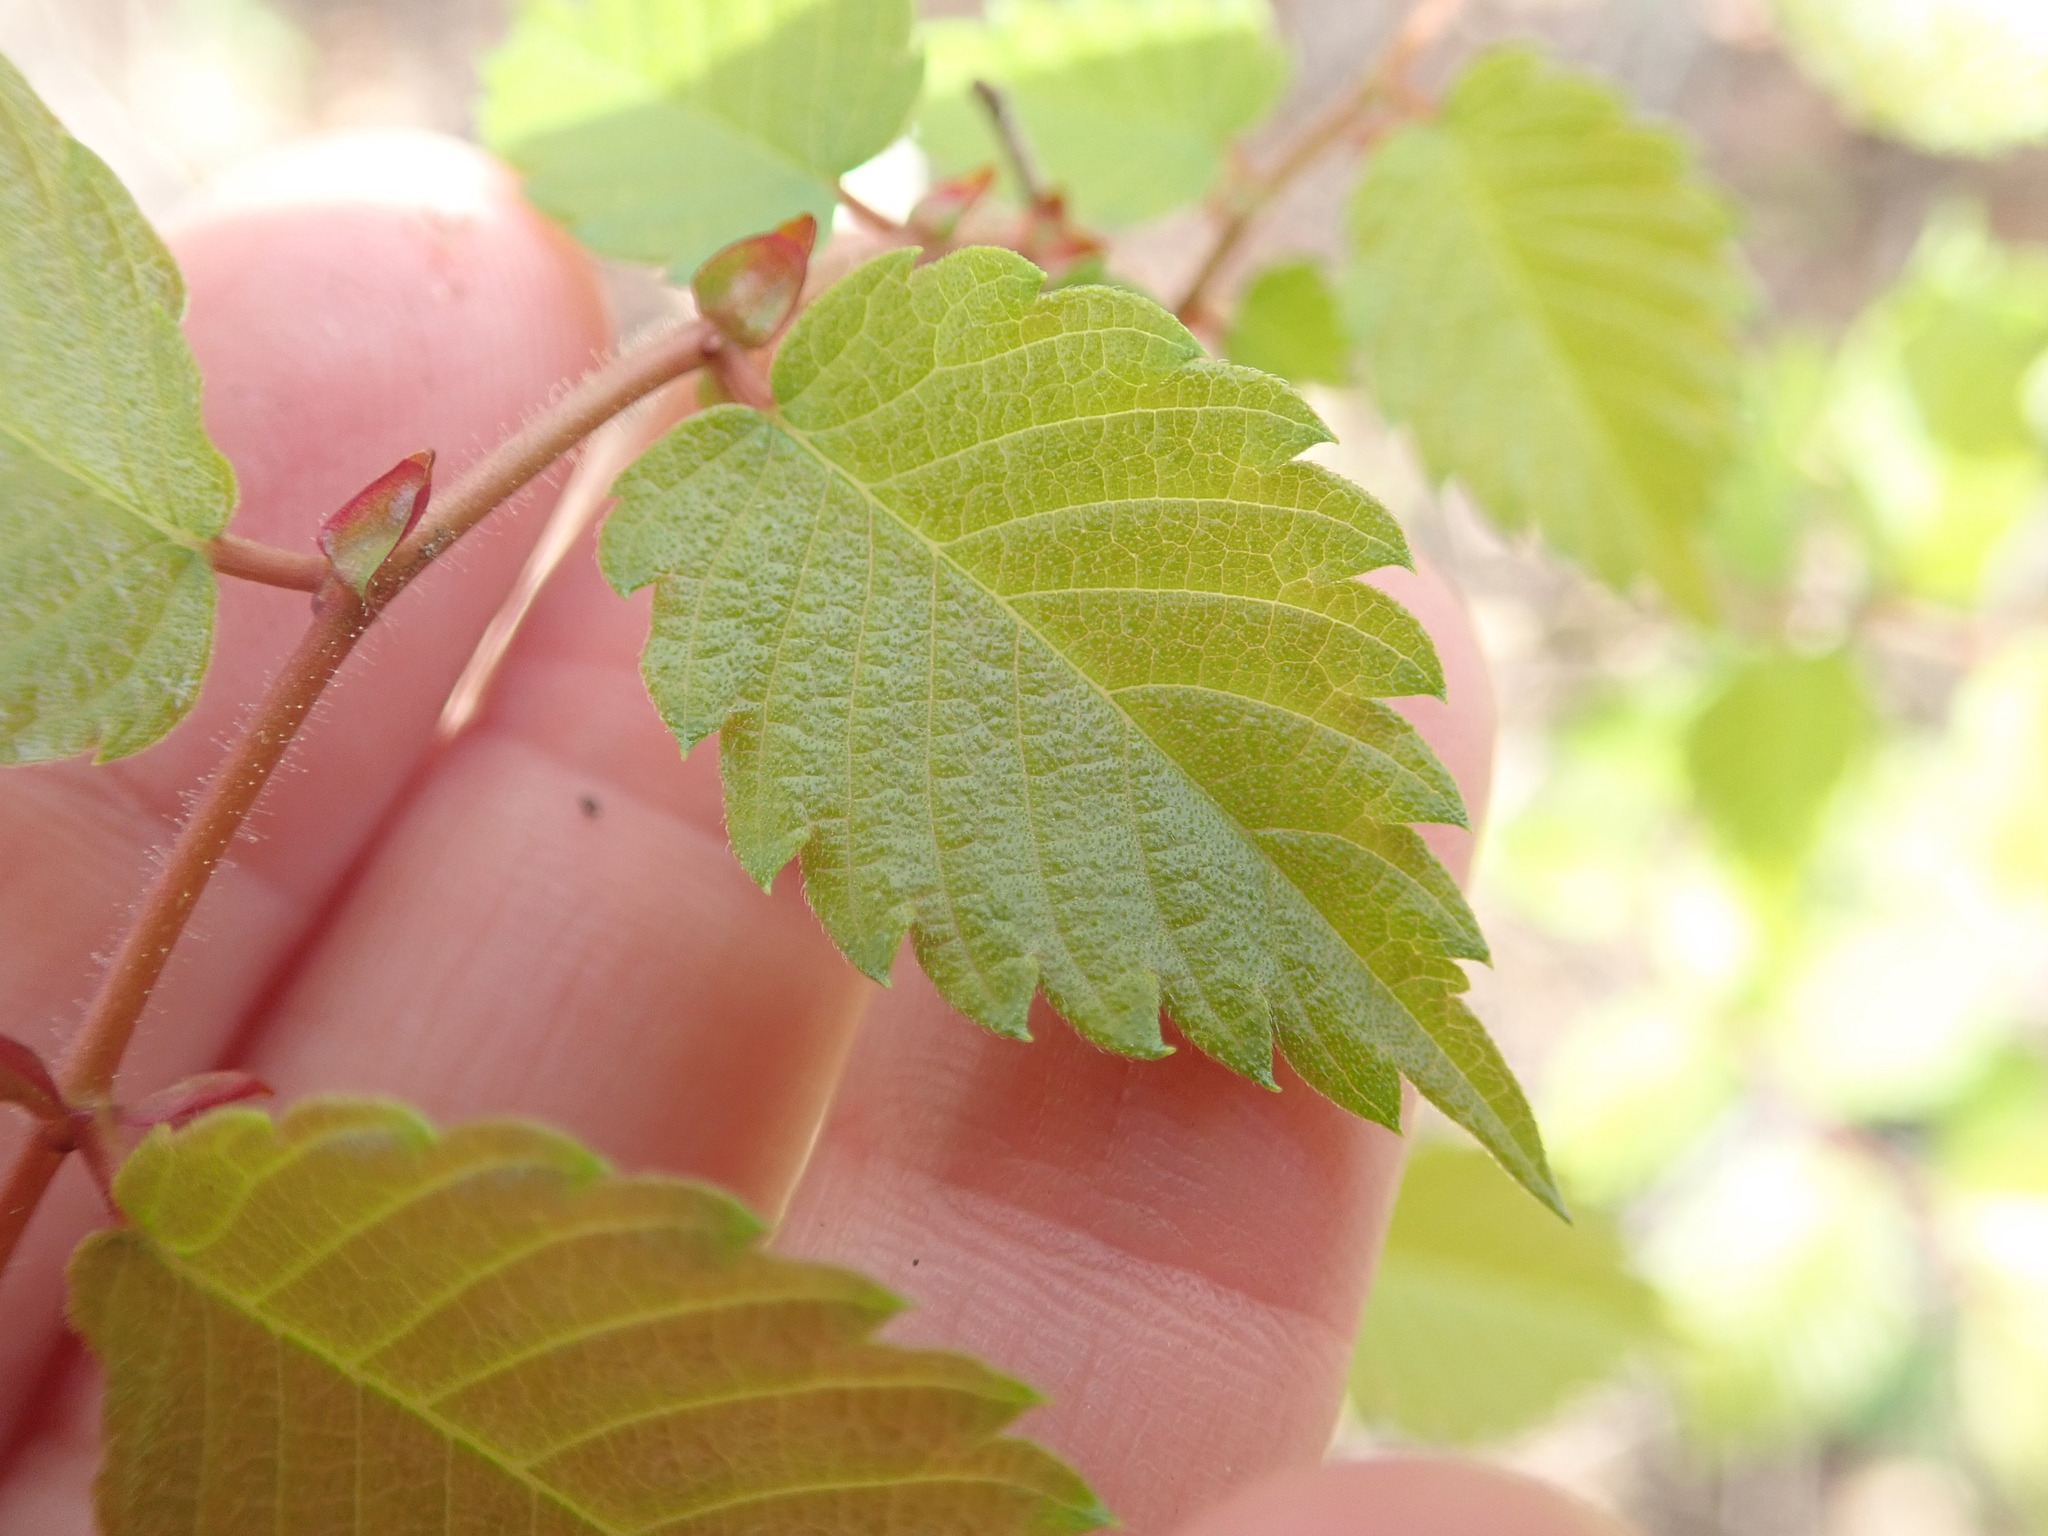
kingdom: Plantae
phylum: Tracheophyta
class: Magnoliopsida
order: Rosales
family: Ulmaceae
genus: Zelkova
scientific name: Zelkova serrata
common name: Japanese zelkova
